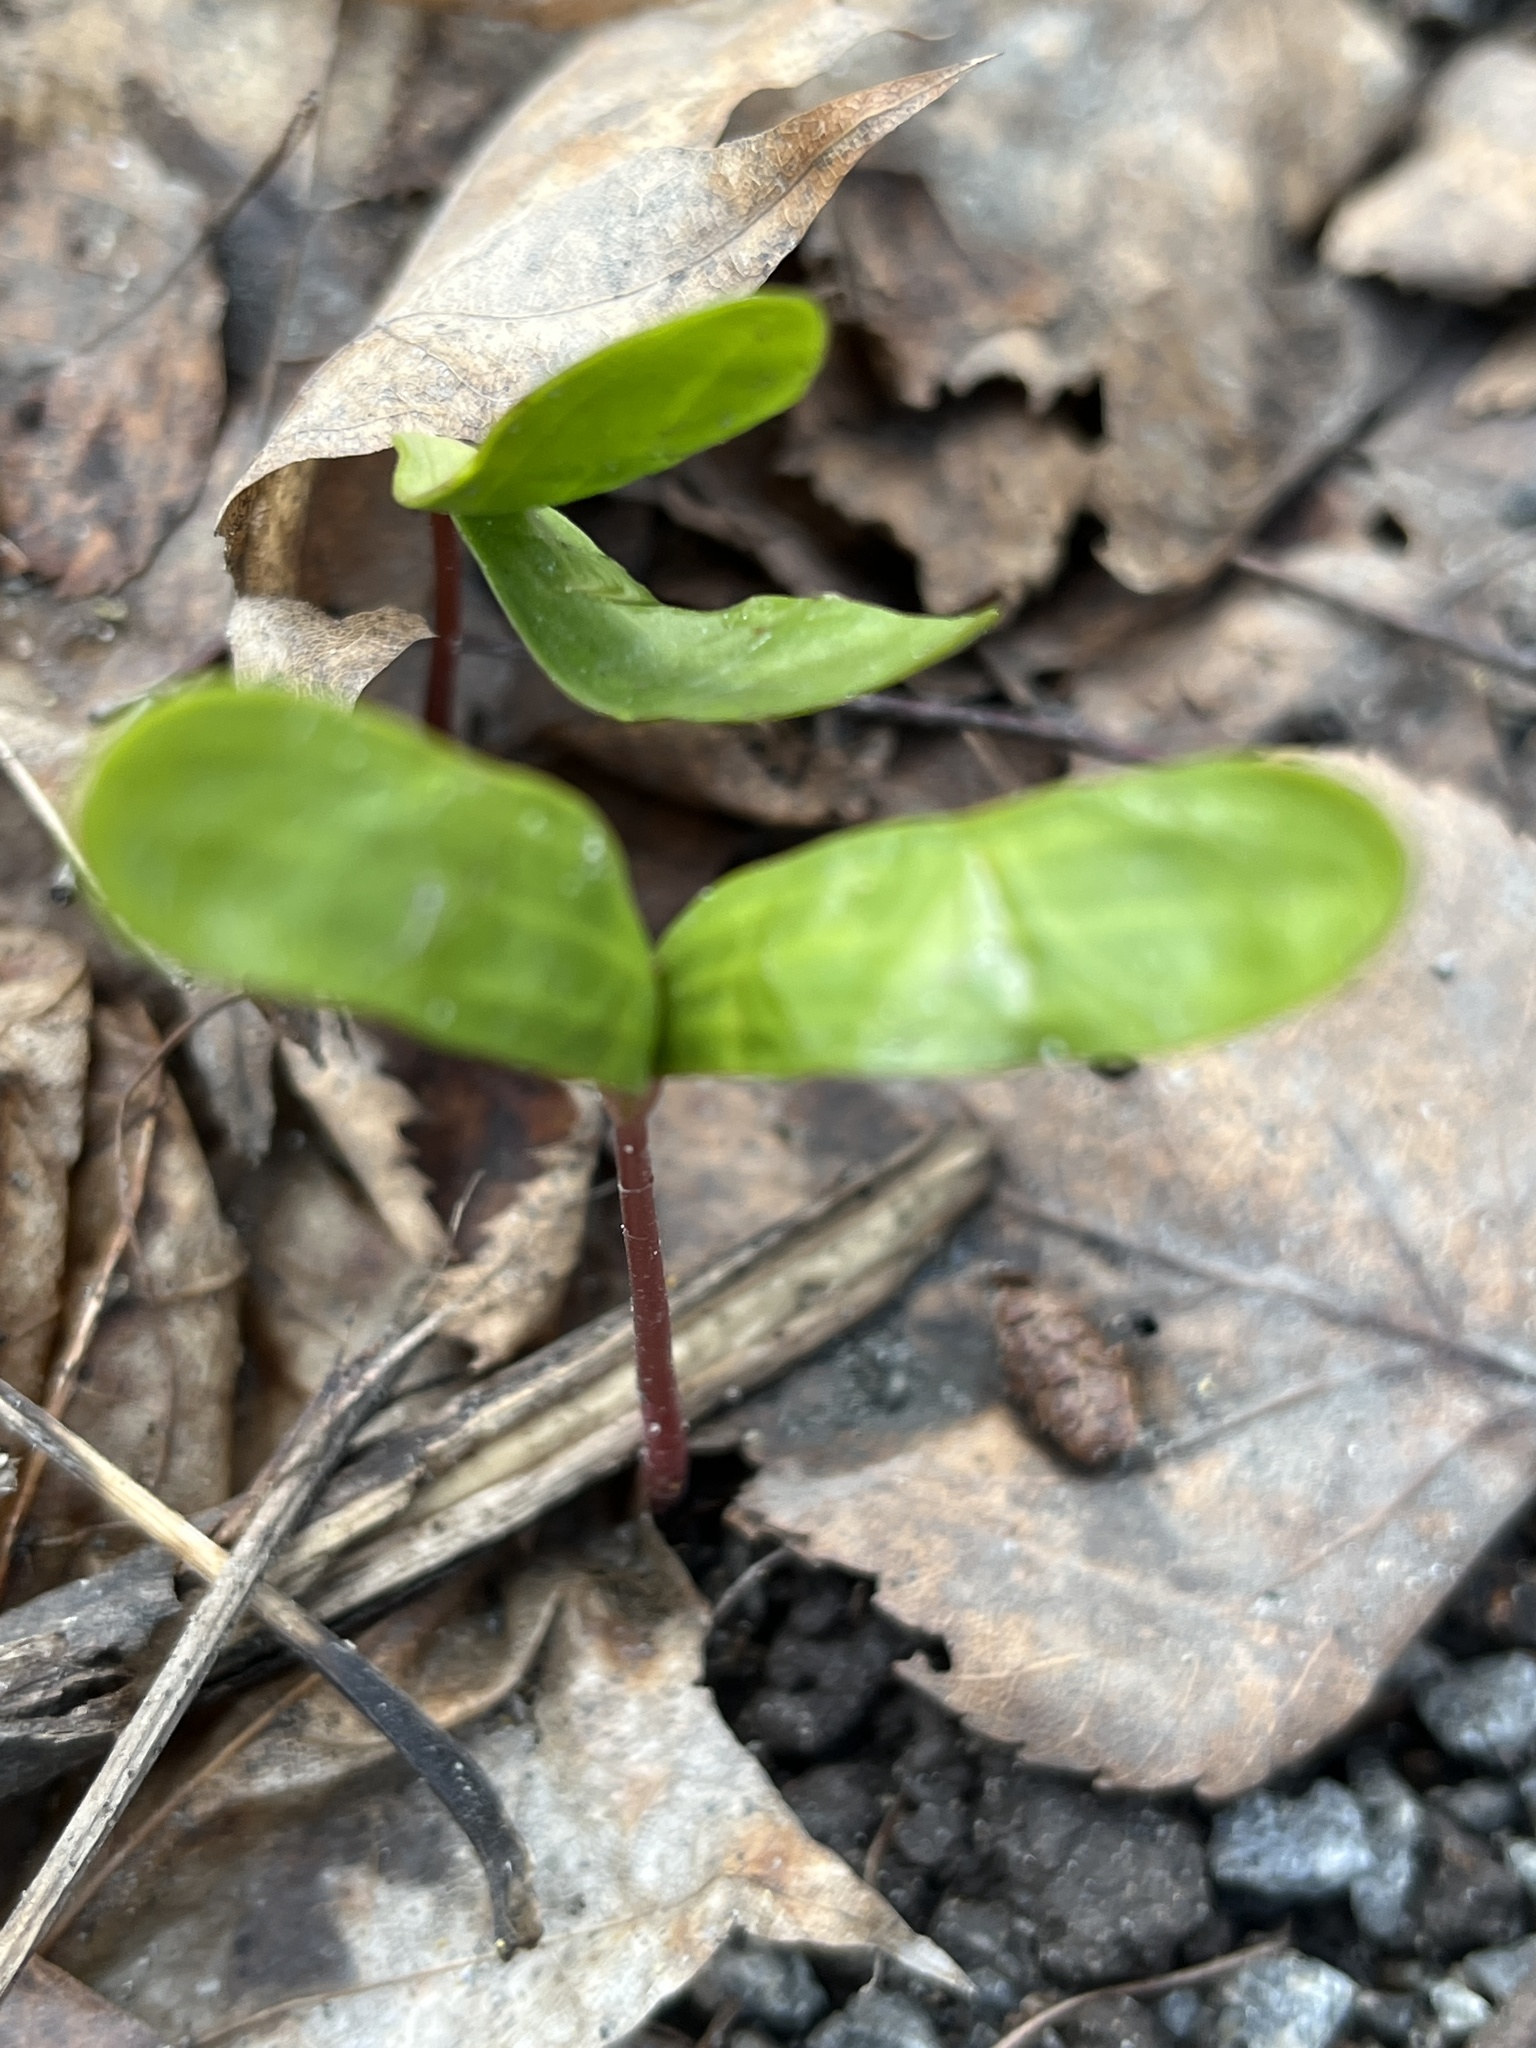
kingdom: Plantae
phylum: Tracheophyta
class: Magnoliopsida
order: Sapindales
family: Sapindaceae
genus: Acer
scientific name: Acer platanoides
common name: Norway maple
